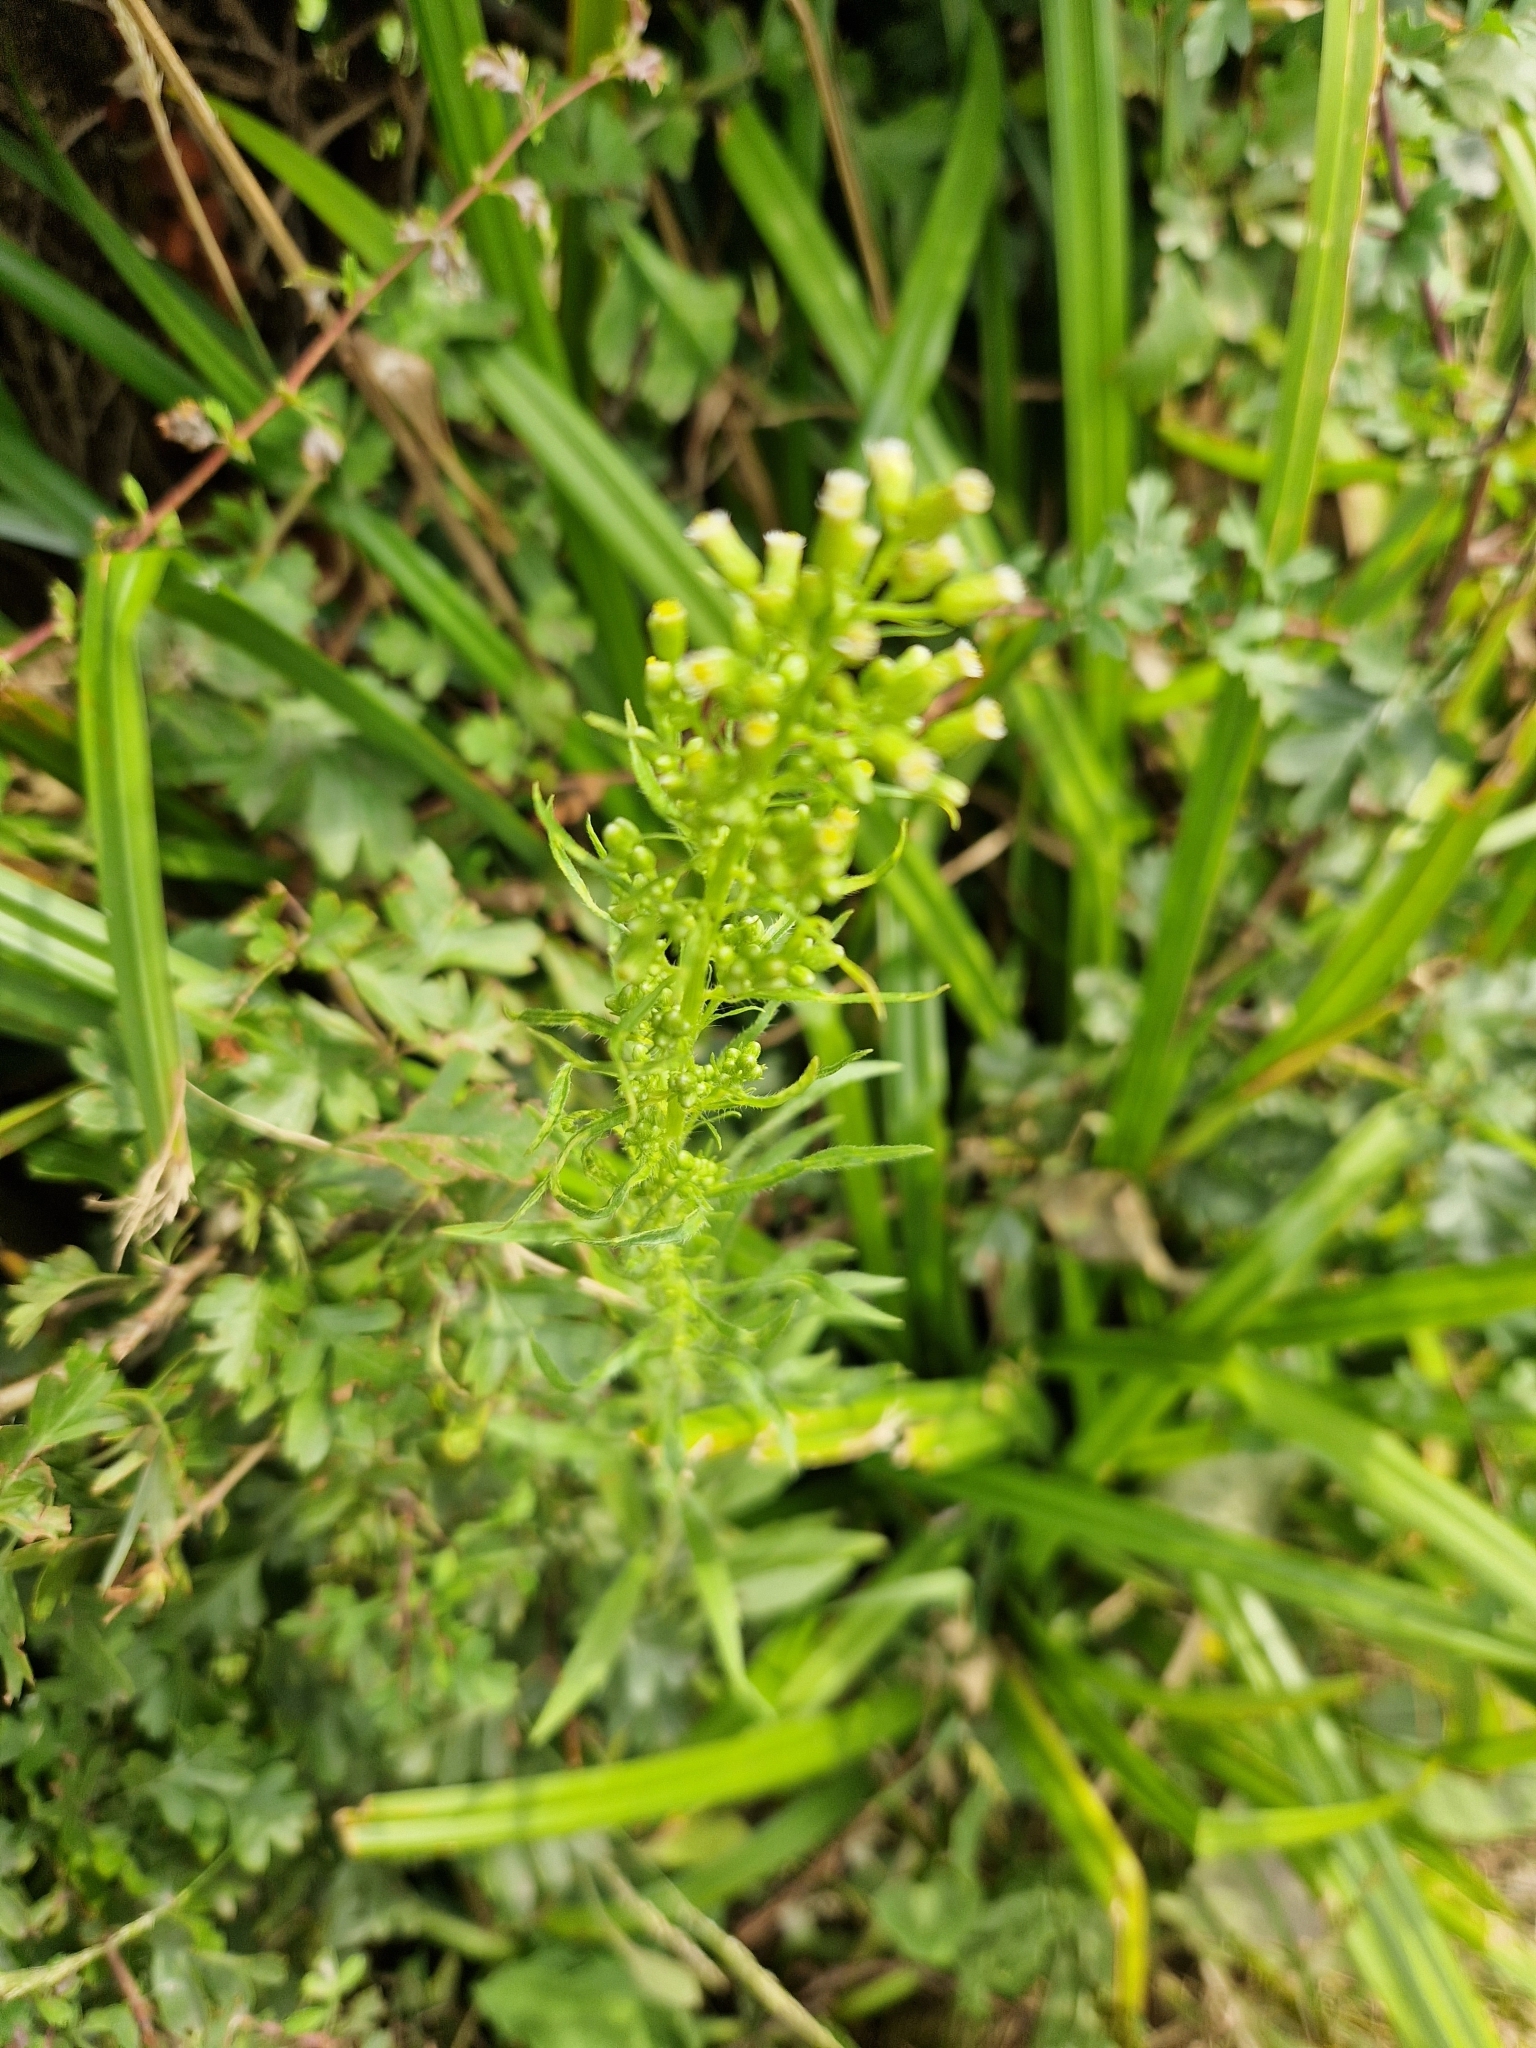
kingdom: Plantae
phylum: Tracheophyta
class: Magnoliopsida
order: Asterales
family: Asteraceae
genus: Erigeron
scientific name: Erigeron canadensis
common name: Canadian fleabane
